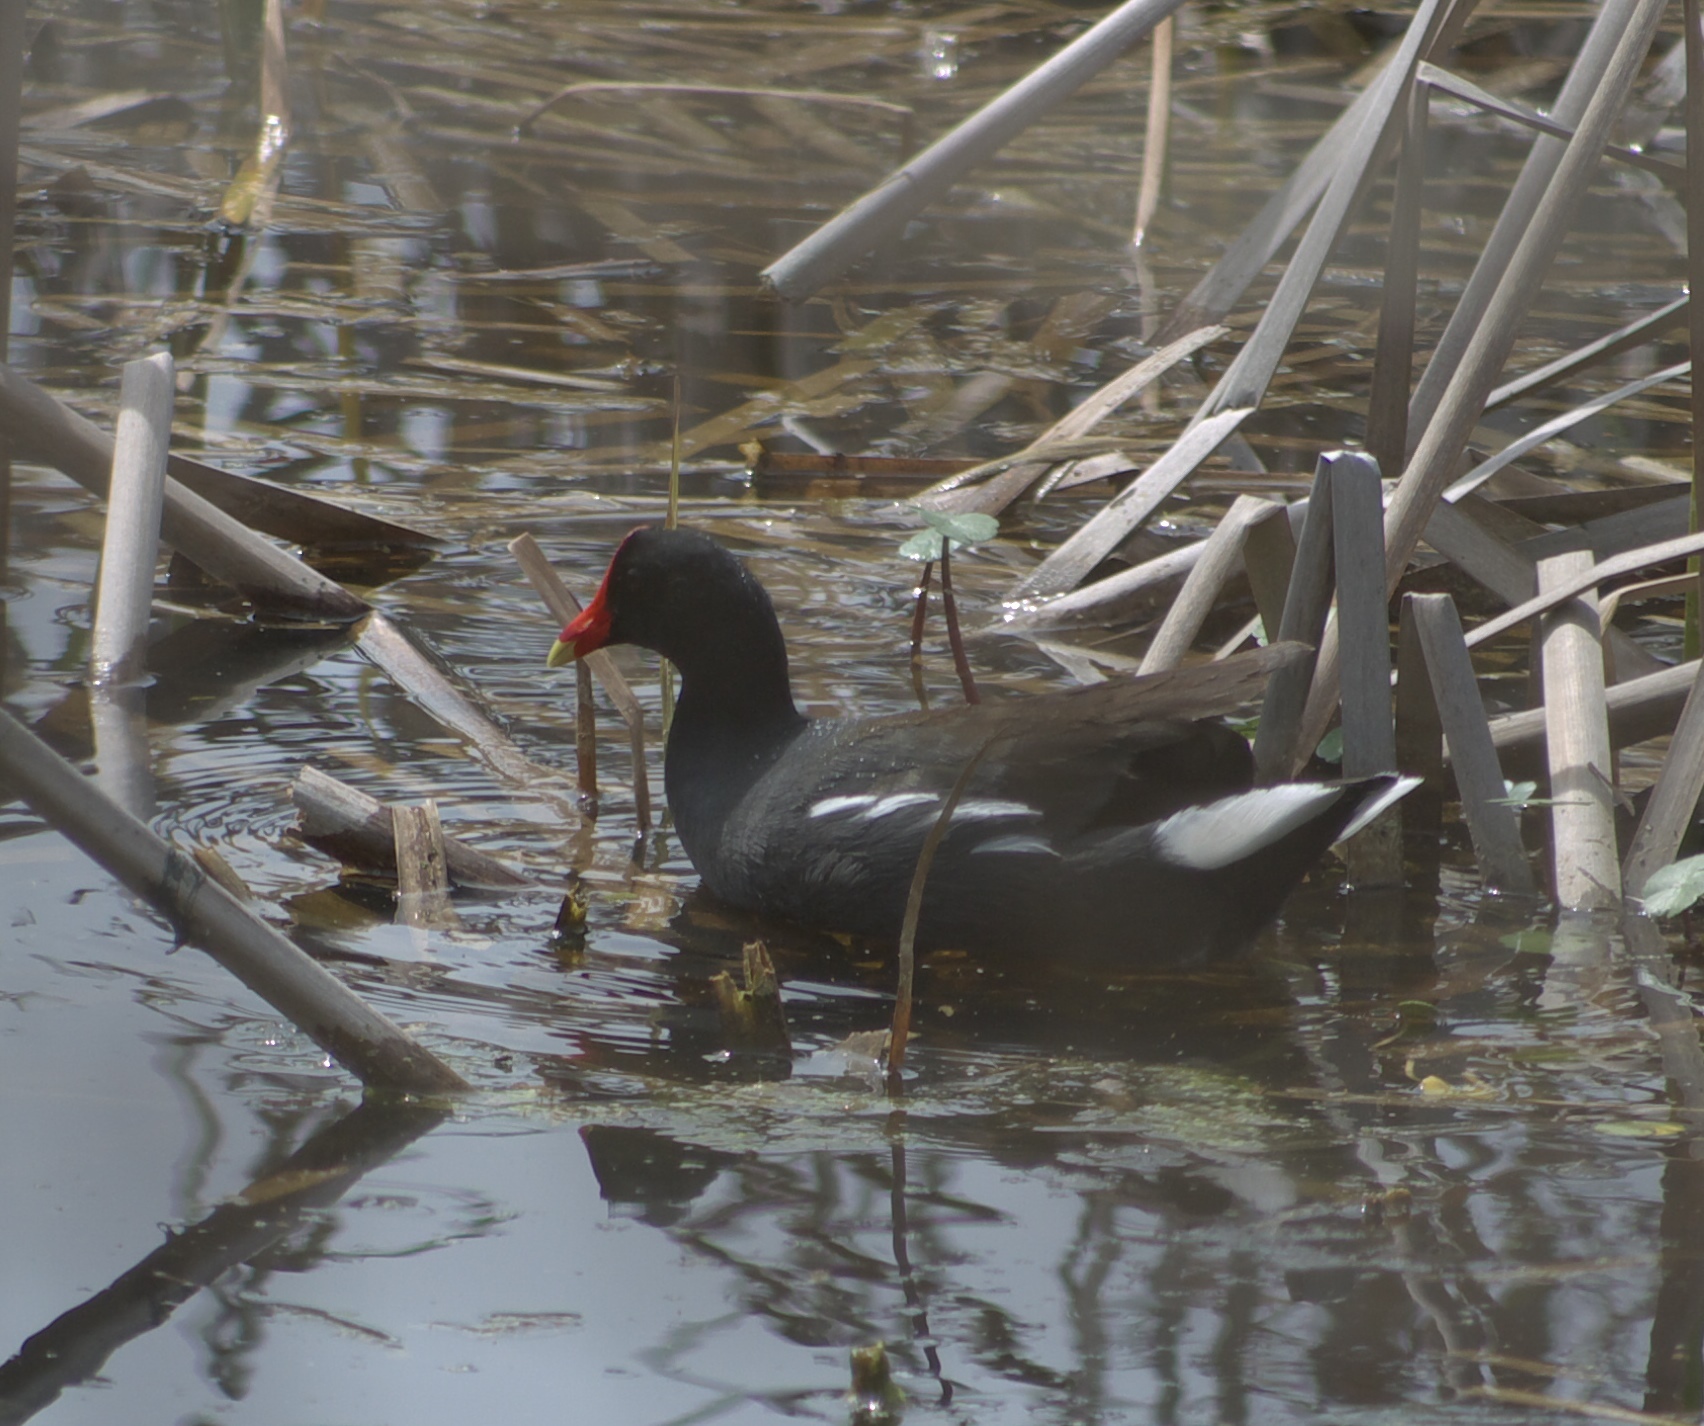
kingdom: Animalia
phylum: Chordata
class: Aves
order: Gruiformes
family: Rallidae
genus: Gallinula
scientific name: Gallinula chloropus
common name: Common moorhen
